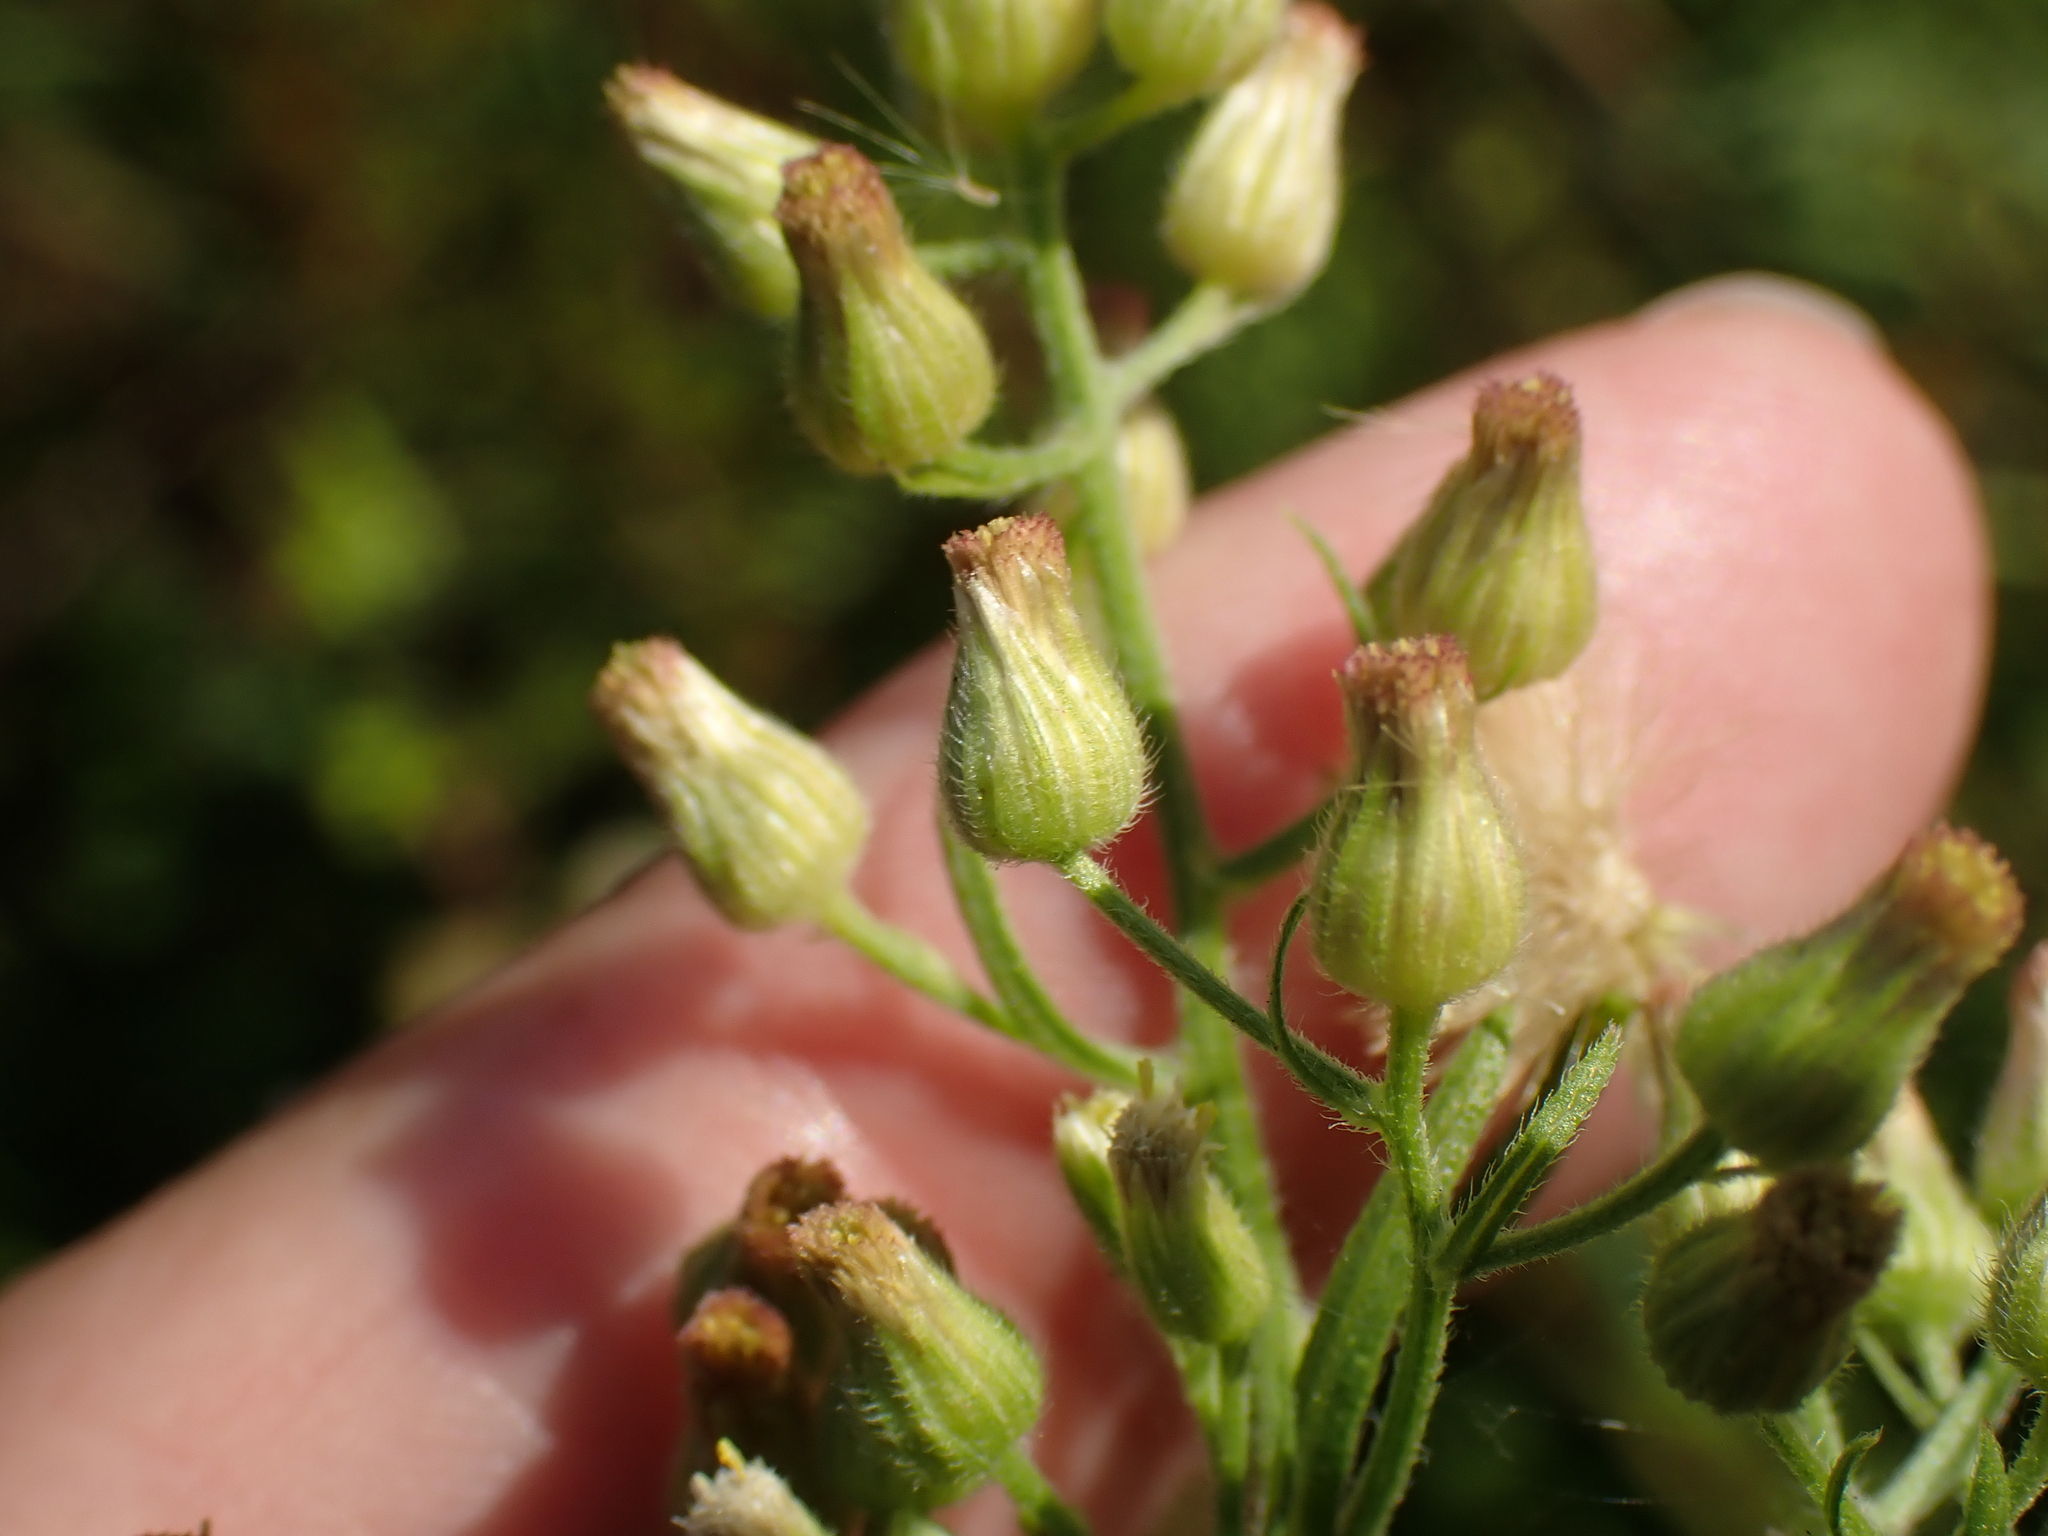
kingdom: Plantae
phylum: Tracheophyta
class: Magnoliopsida
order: Asterales
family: Asteraceae
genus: Erigeron
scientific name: Erigeron sumatrensis
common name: Daisy
